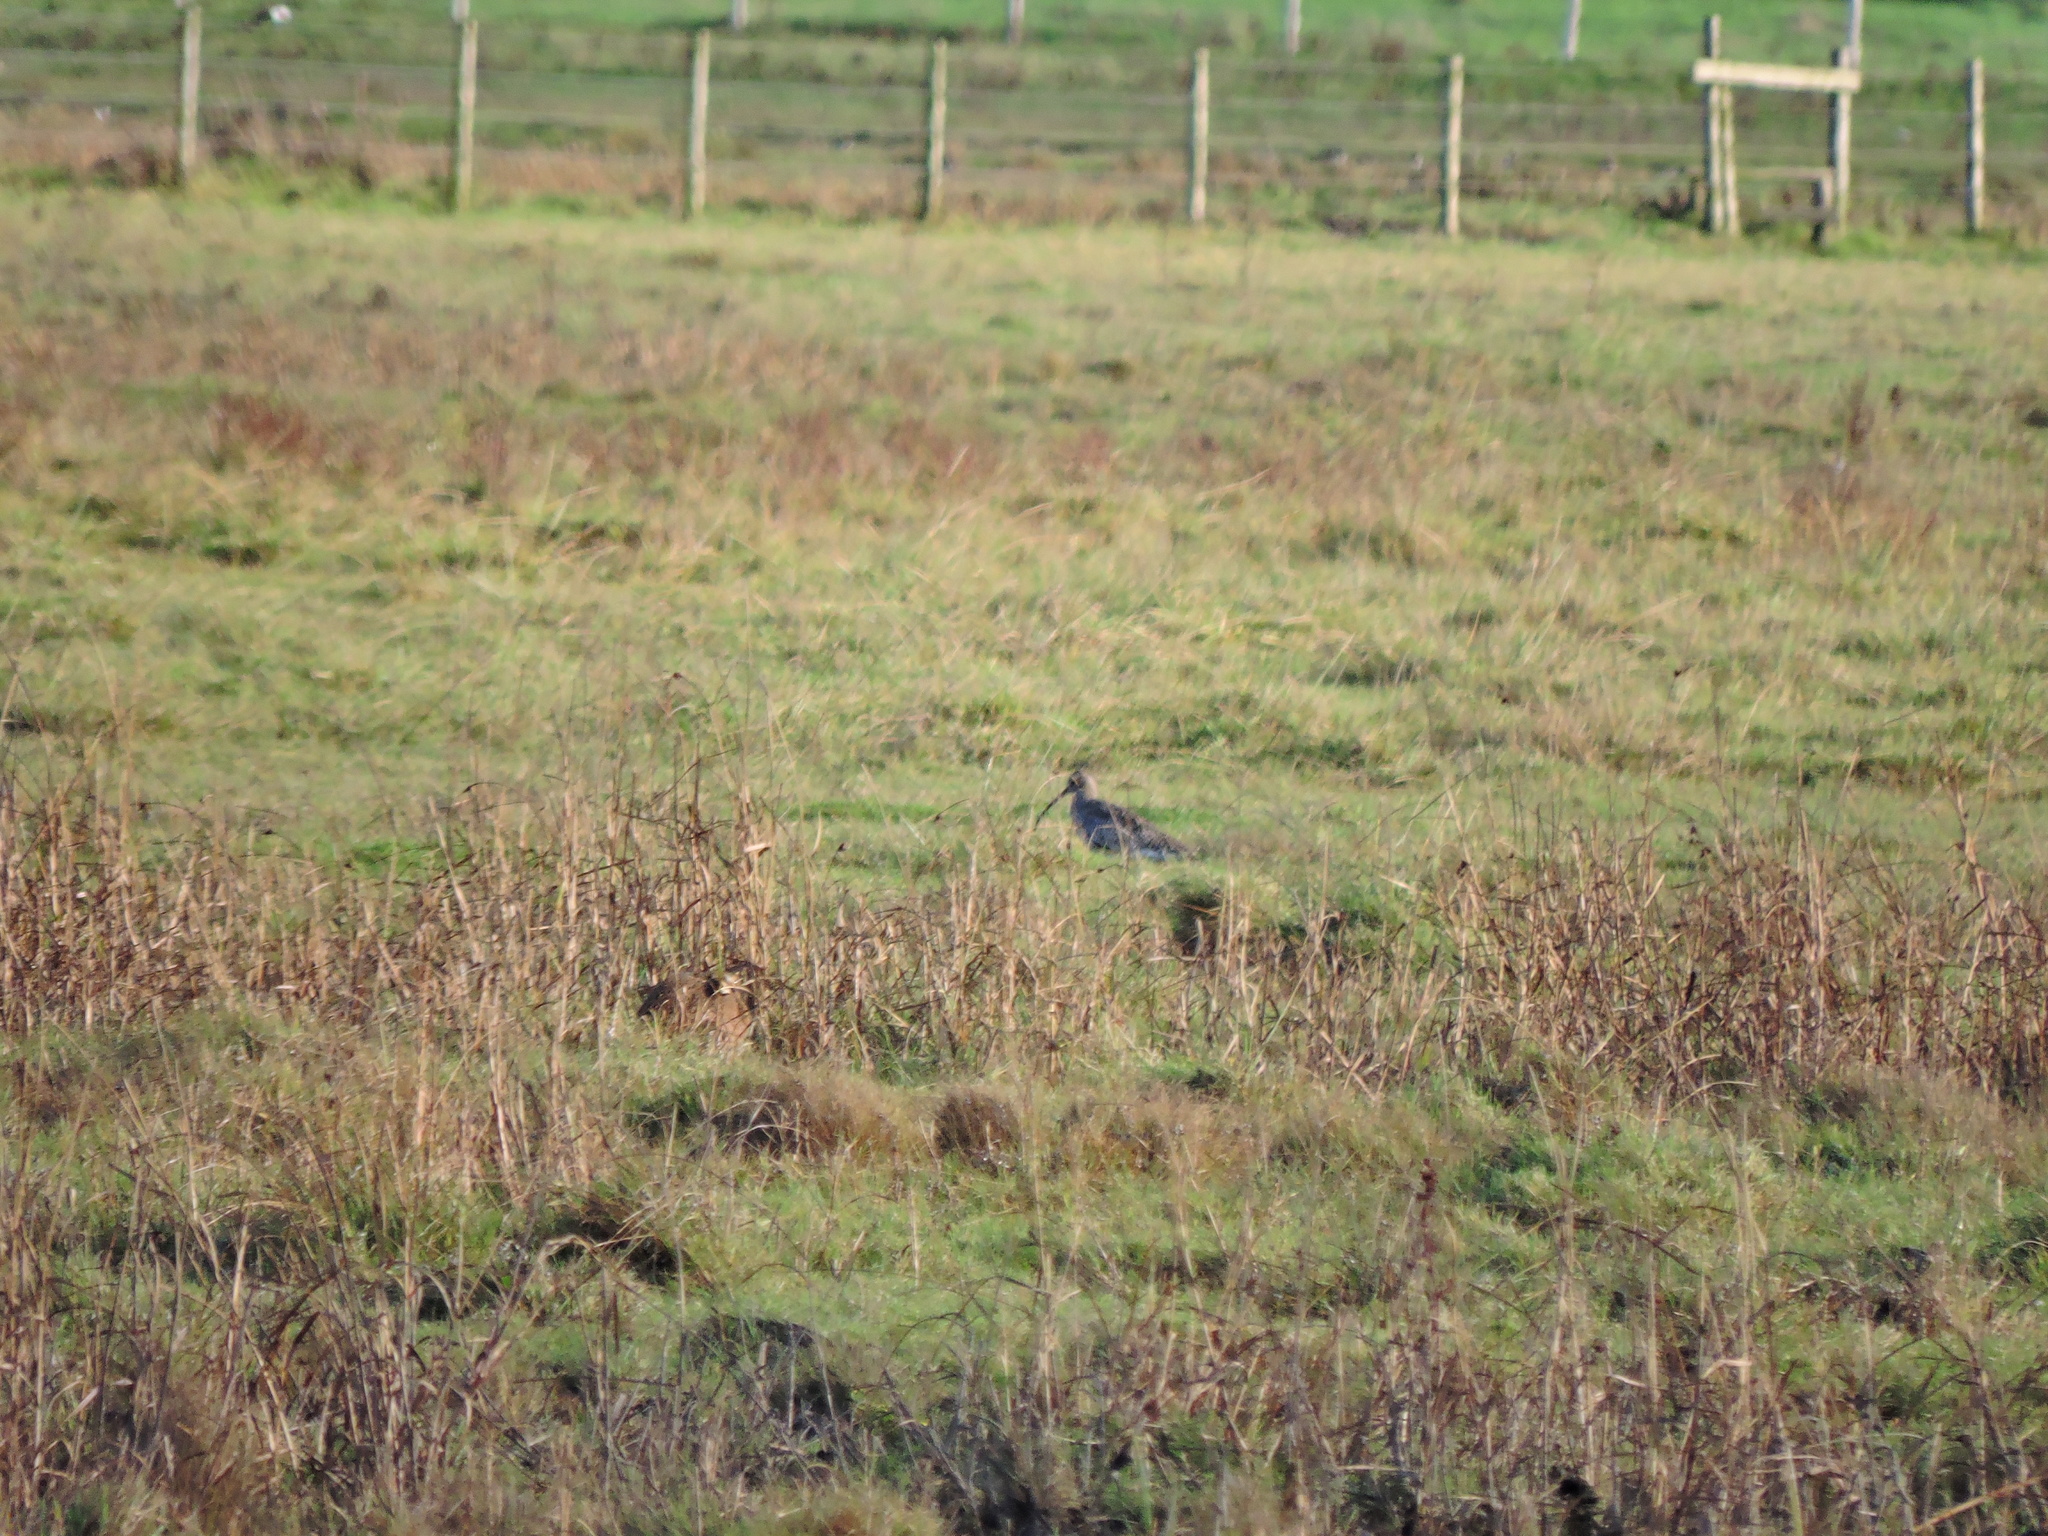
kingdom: Animalia
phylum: Chordata
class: Aves
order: Charadriiformes
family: Scolopacidae
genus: Numenius
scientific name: Numenius arquata
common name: Eurasian curlew
